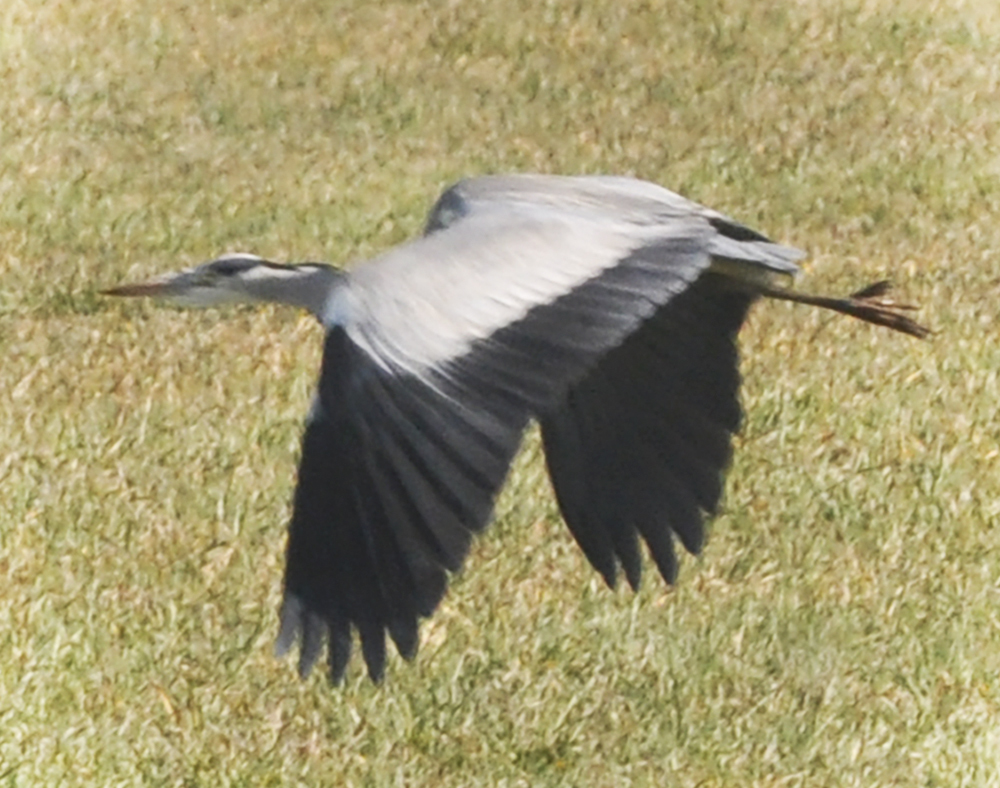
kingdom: Animalia
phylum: Chordata
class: Aves
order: Pelecaniformes
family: Ardeidae
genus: Ardea
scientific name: Ardea cinerea
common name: Grey heron
